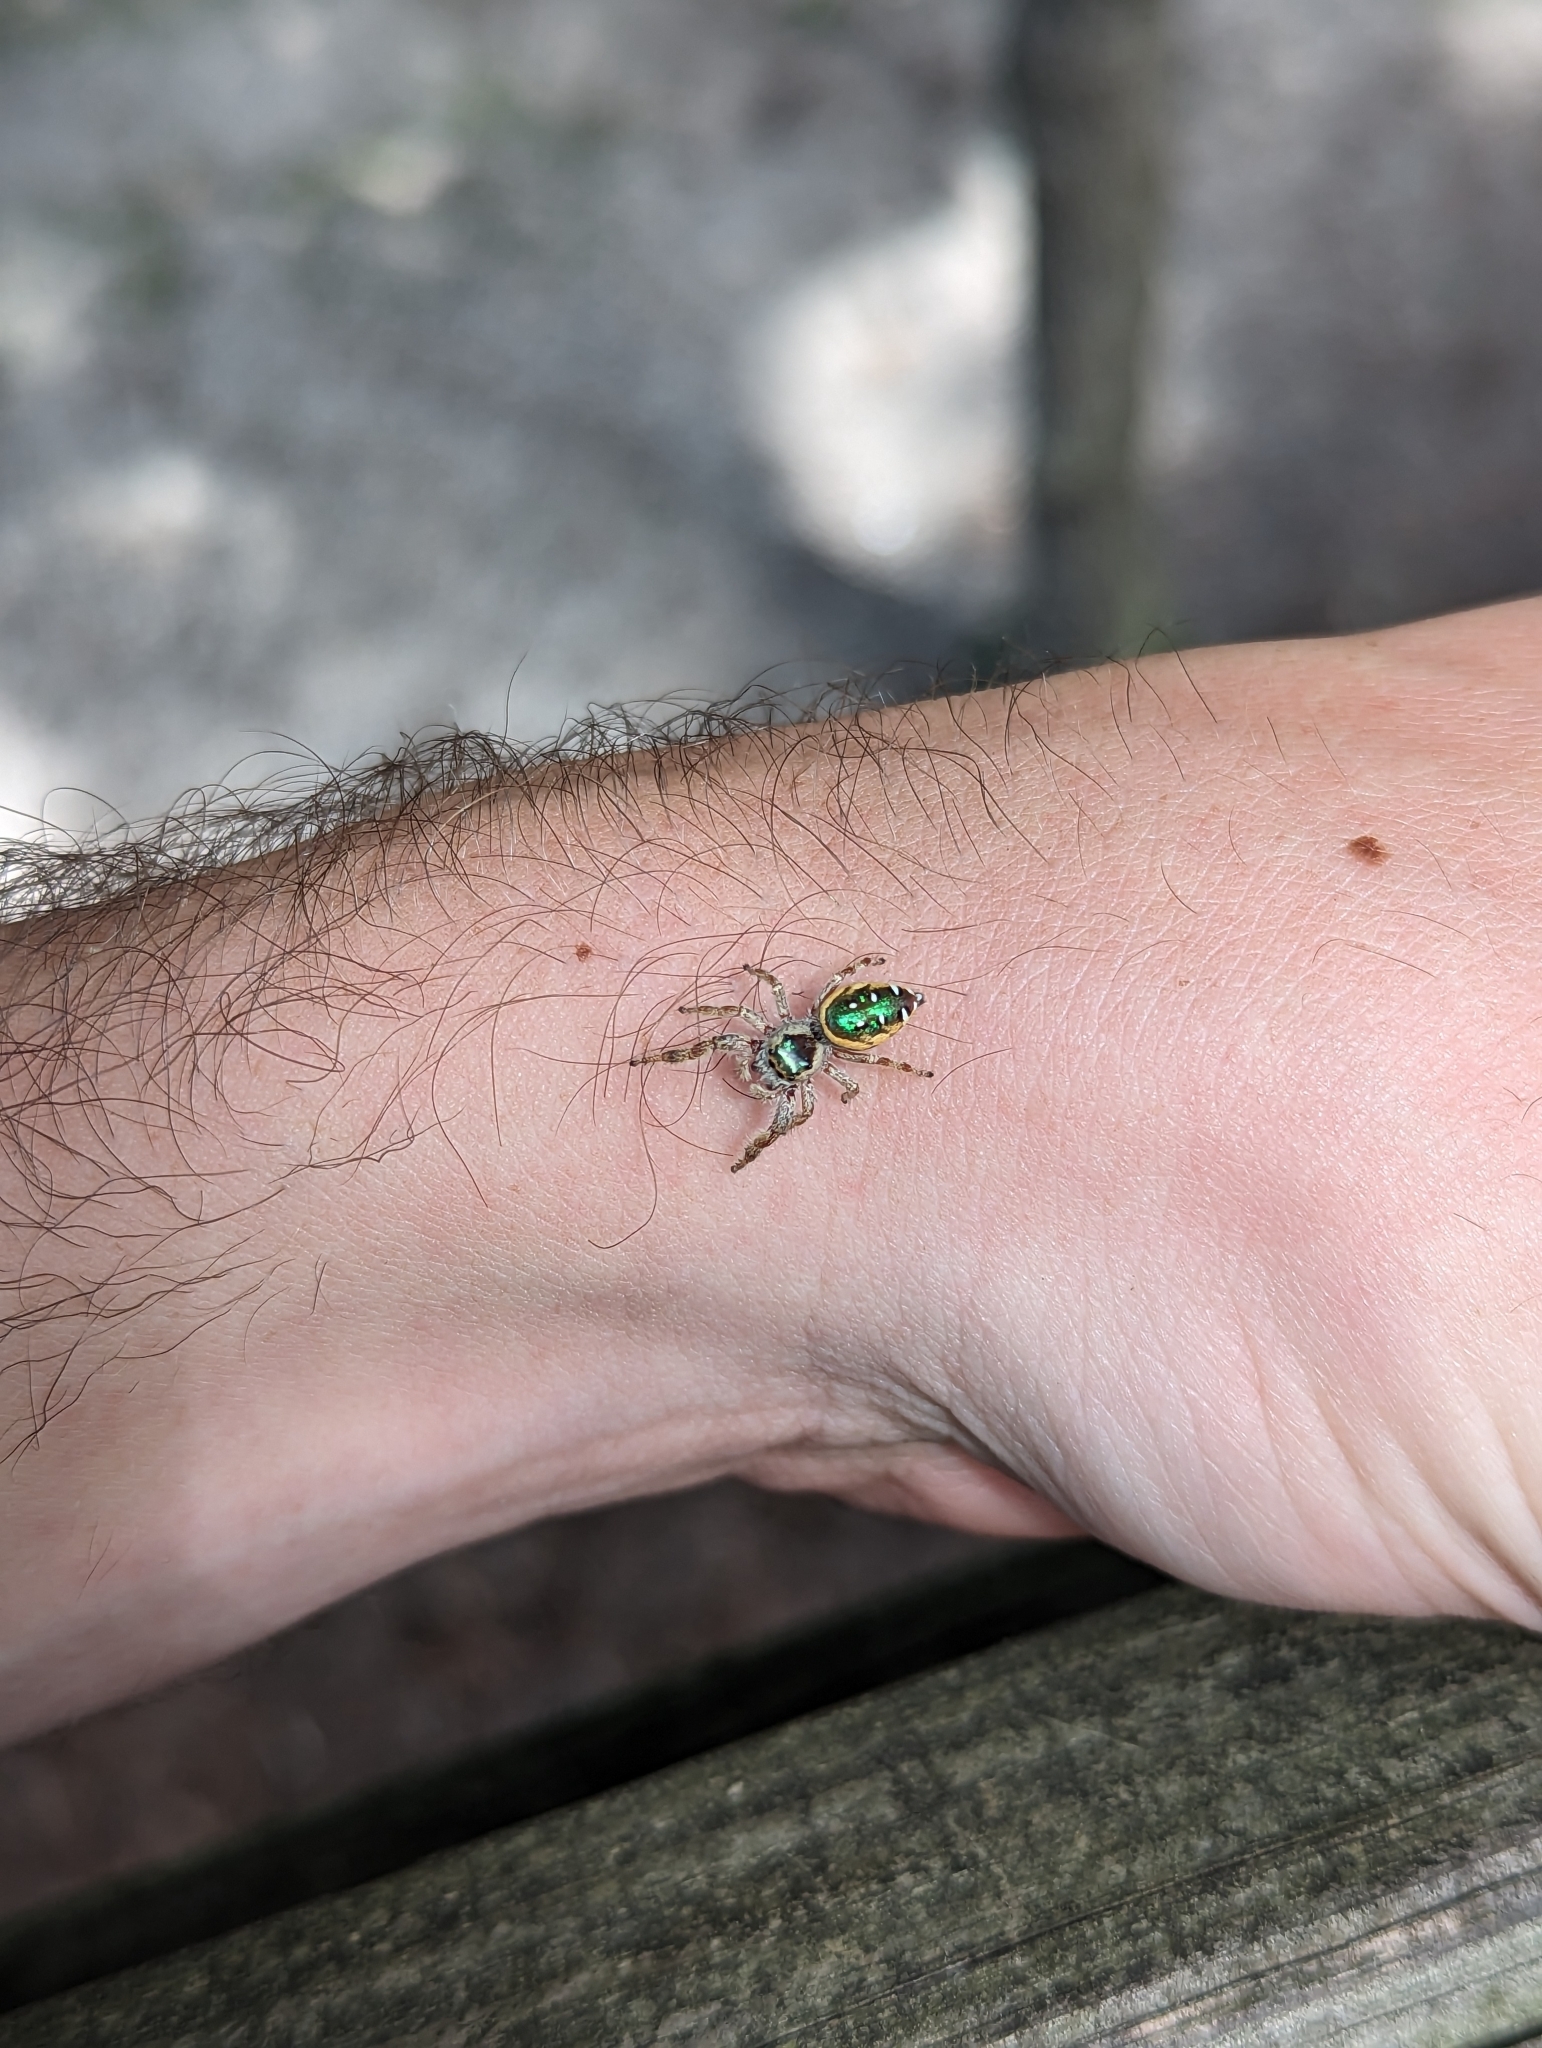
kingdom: Animalia
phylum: Arthropoda
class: Arachnida
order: Araneae
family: Salticidae
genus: Paraphidippus
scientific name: Paraphidippus aurantius
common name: Jumping spiders
